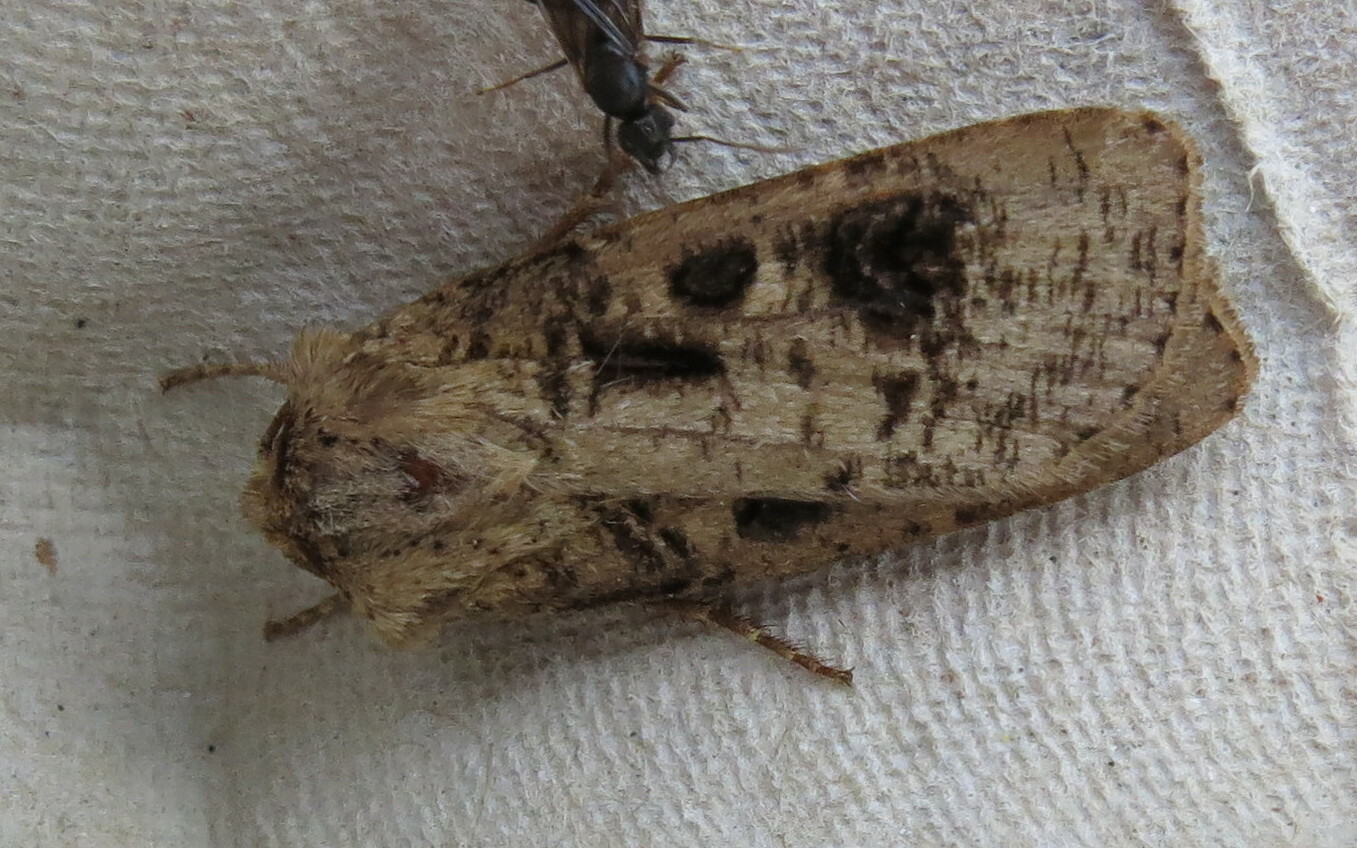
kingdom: Animalia
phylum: Arthropoda
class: Insecta
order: Lepidoptera
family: Noctuidae
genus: Agrotis
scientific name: Agrotis clavis
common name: Heart and club
